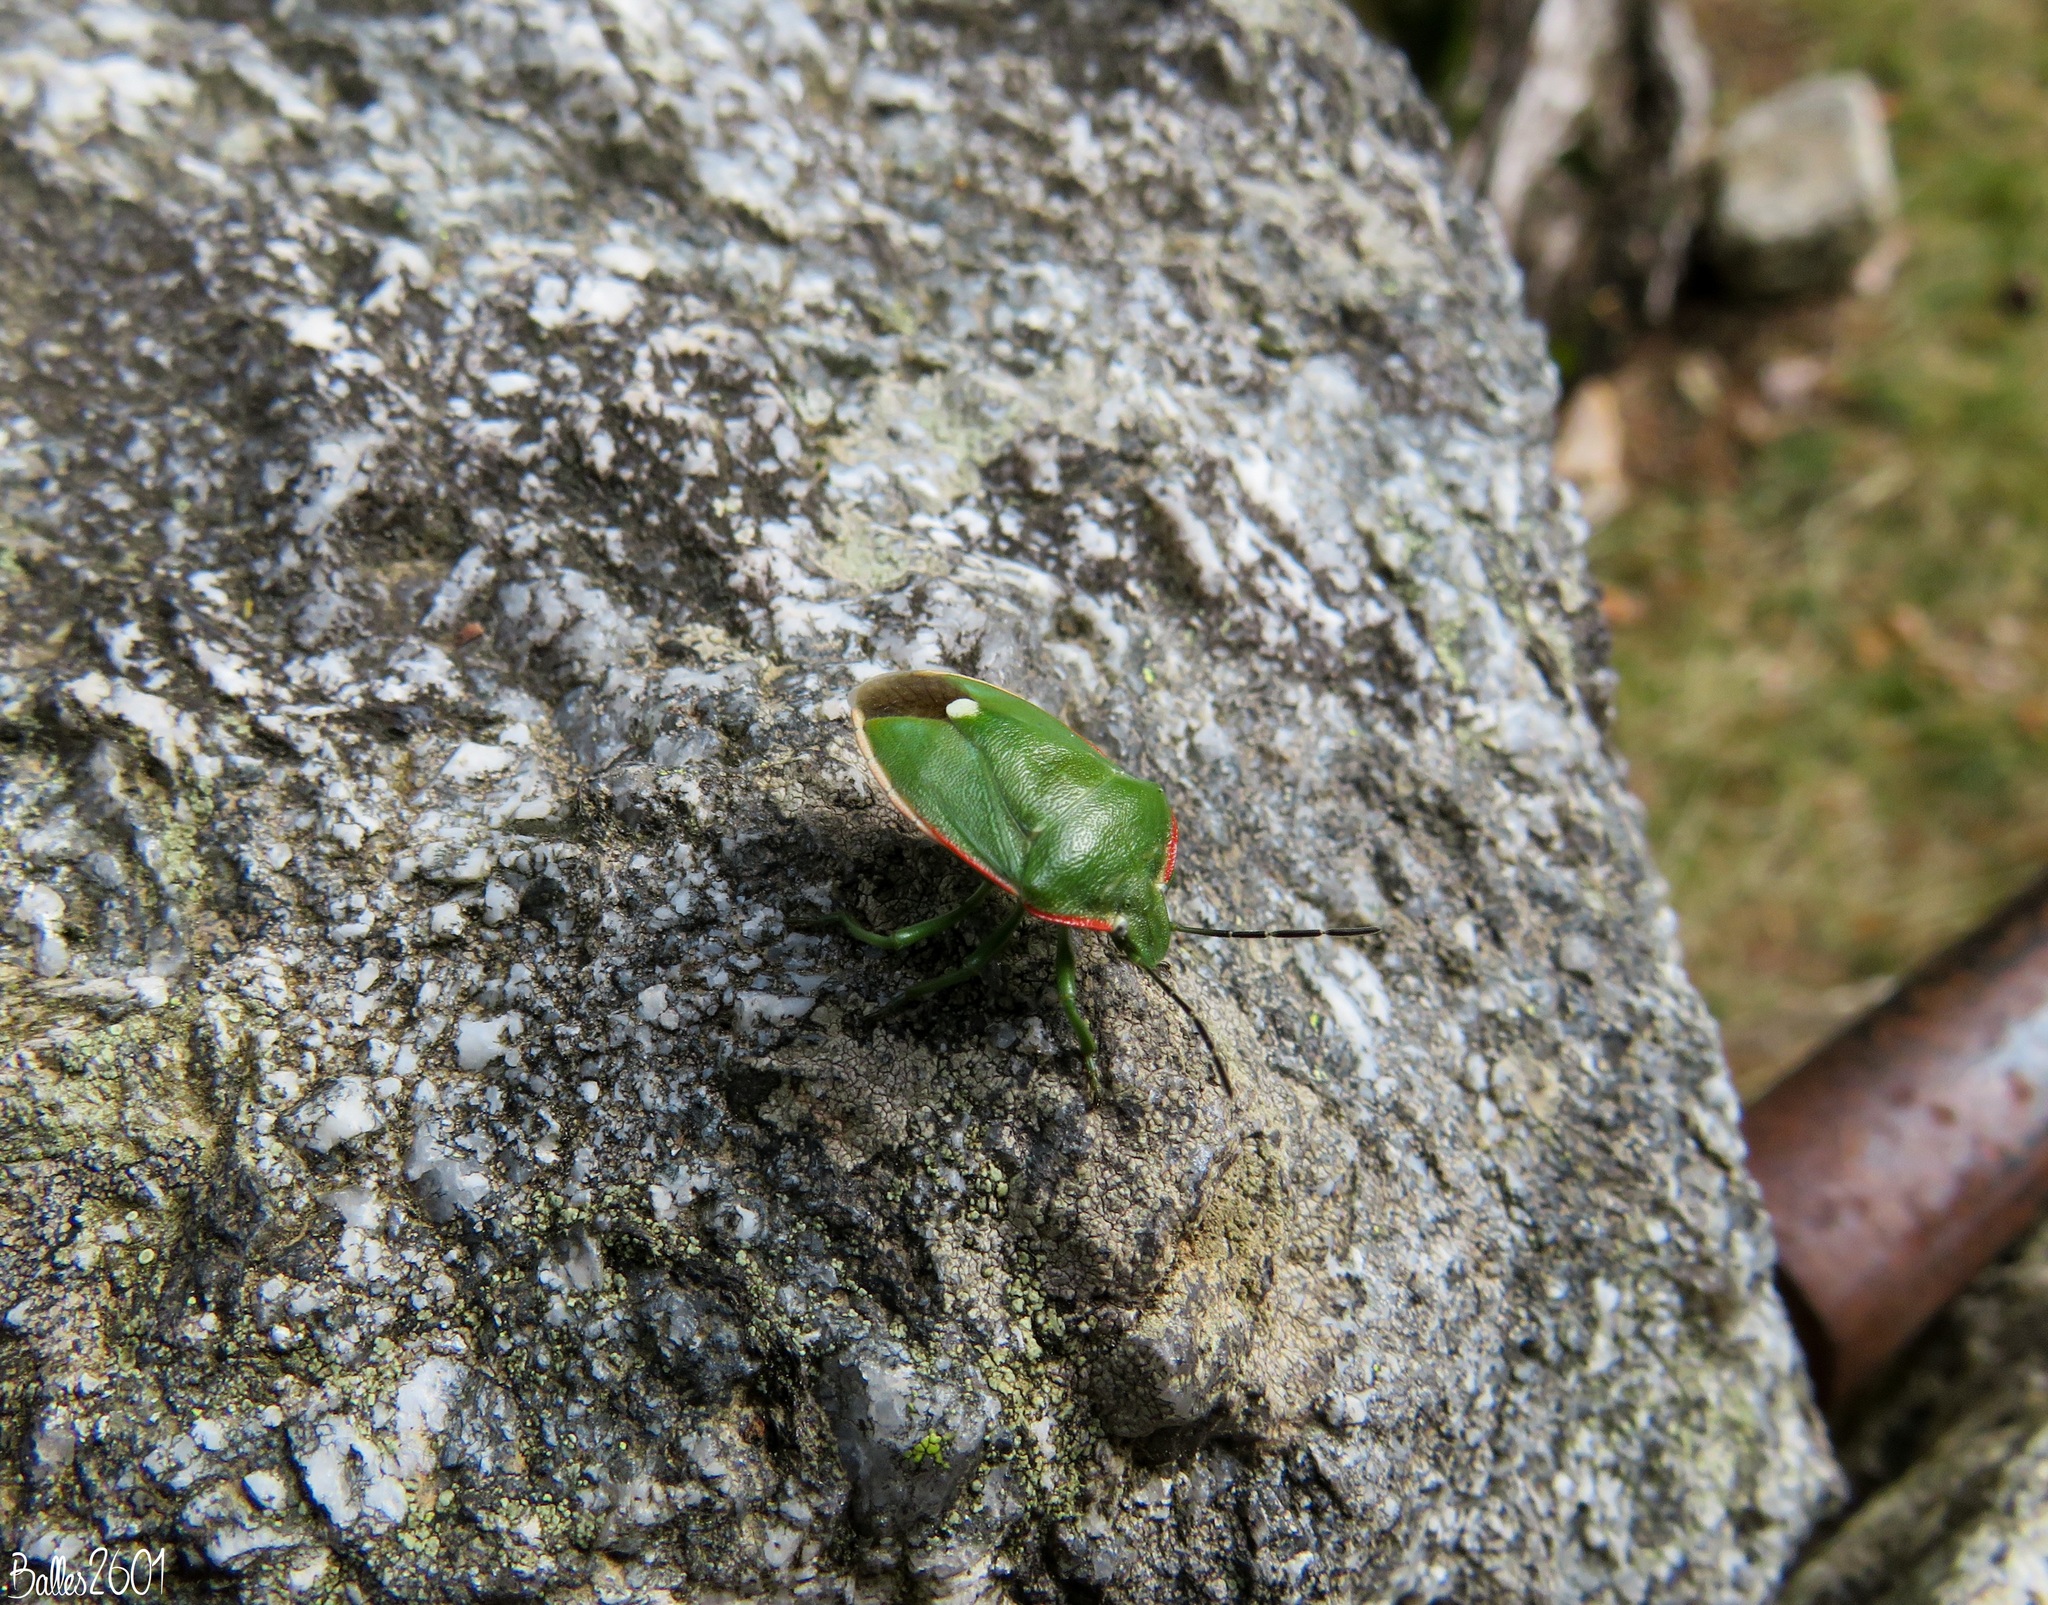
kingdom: Animalia
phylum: Arthropoda
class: Insecta
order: Hemiptera
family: Pentatomidae
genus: Chlorochroa
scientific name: Chlorochroa reuteriana
